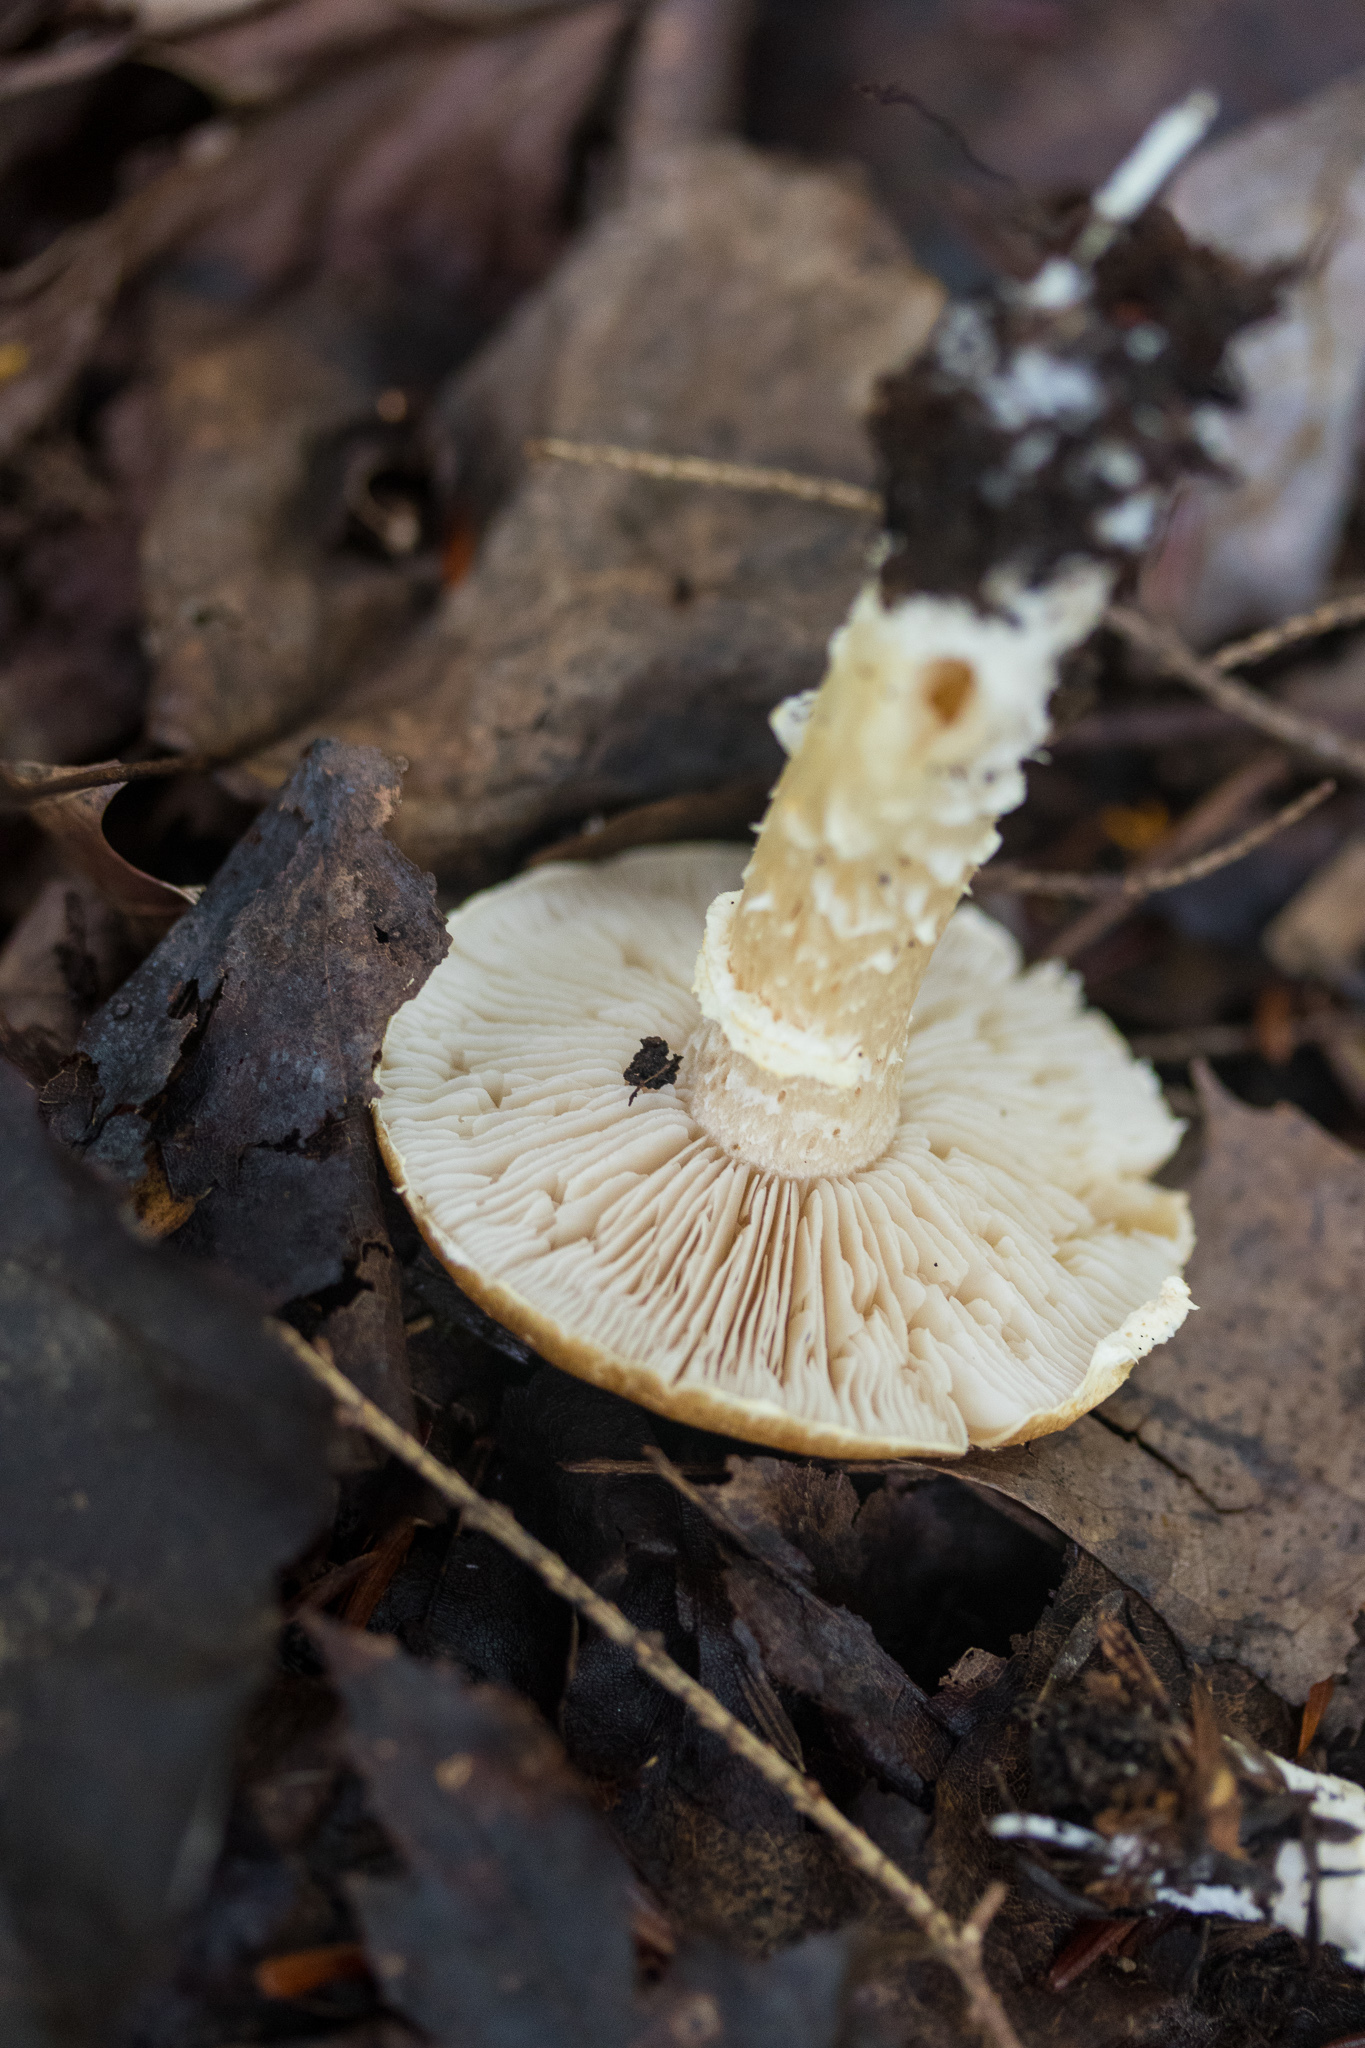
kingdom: Fungi
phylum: Basidiomycota
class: Agaricomycetes
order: Agaricales
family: Strophariaceae
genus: Stropharia
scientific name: Stropharia hornemannii
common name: Conifer roundhead
